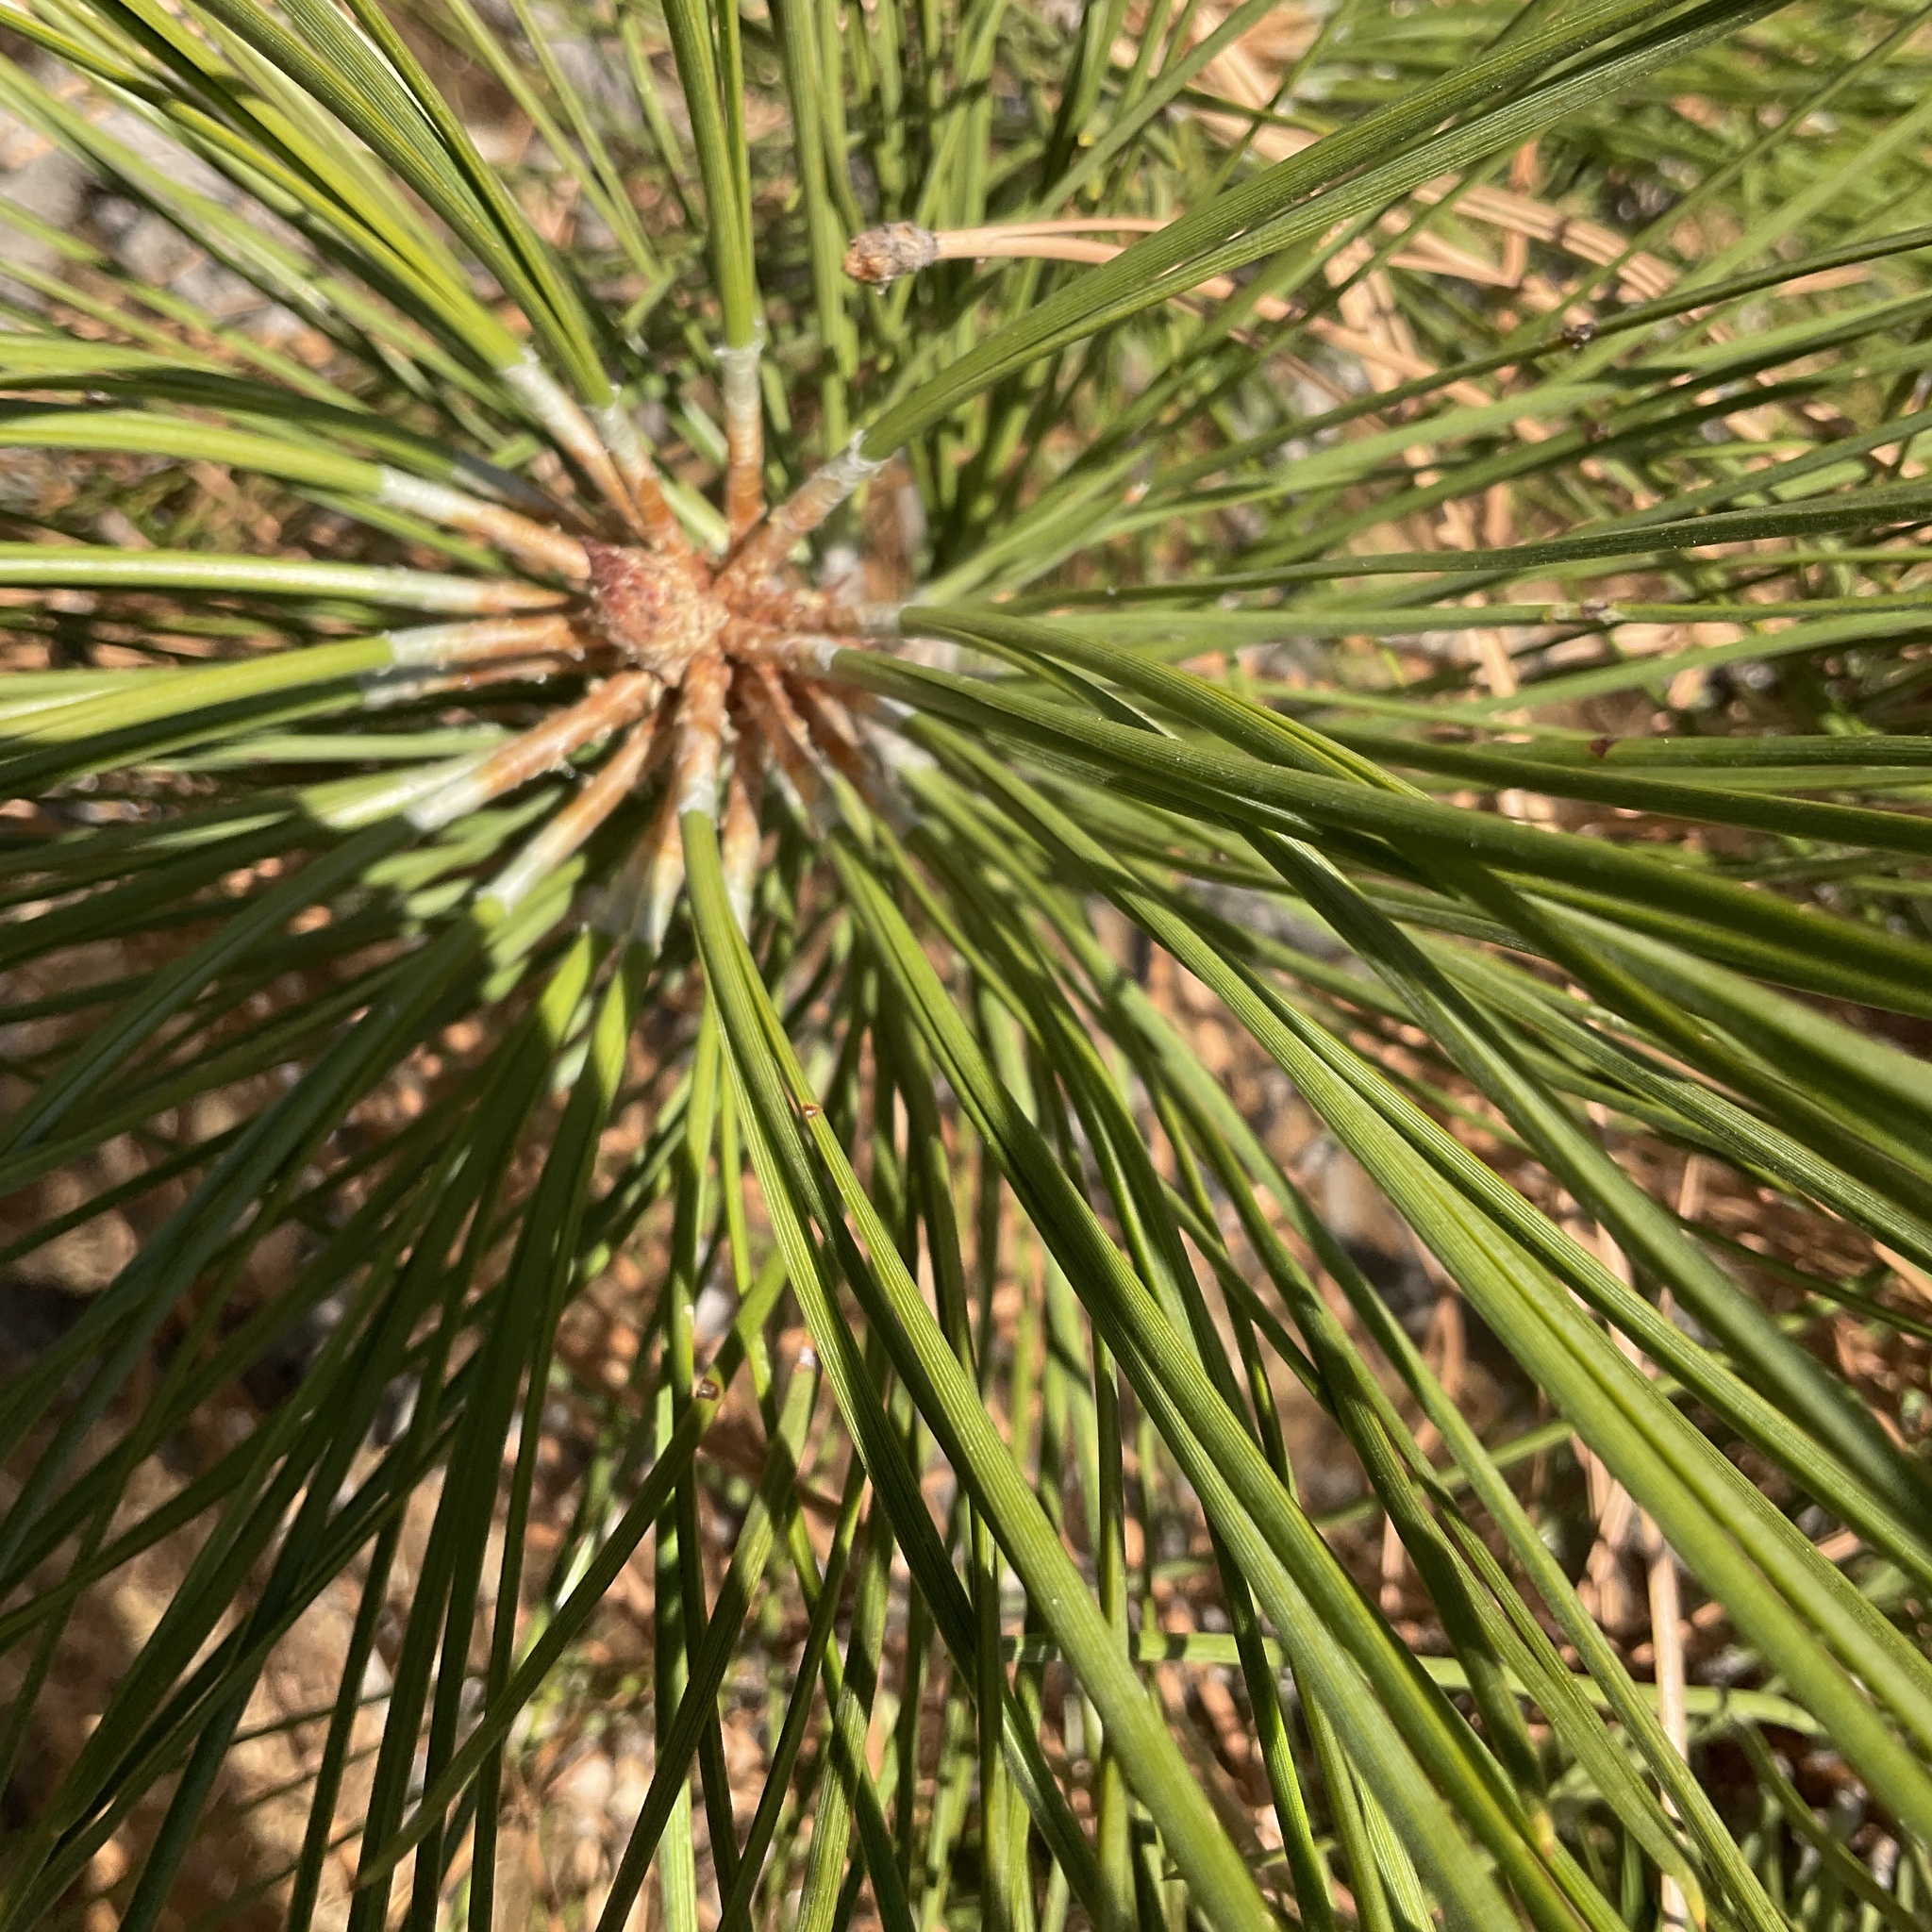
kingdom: Plantae
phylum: Tracheophyta
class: Pinopsida
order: Pinales
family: Pinaceae
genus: Pinus
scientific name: Pinus ponderosa
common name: Western yellow-pine
